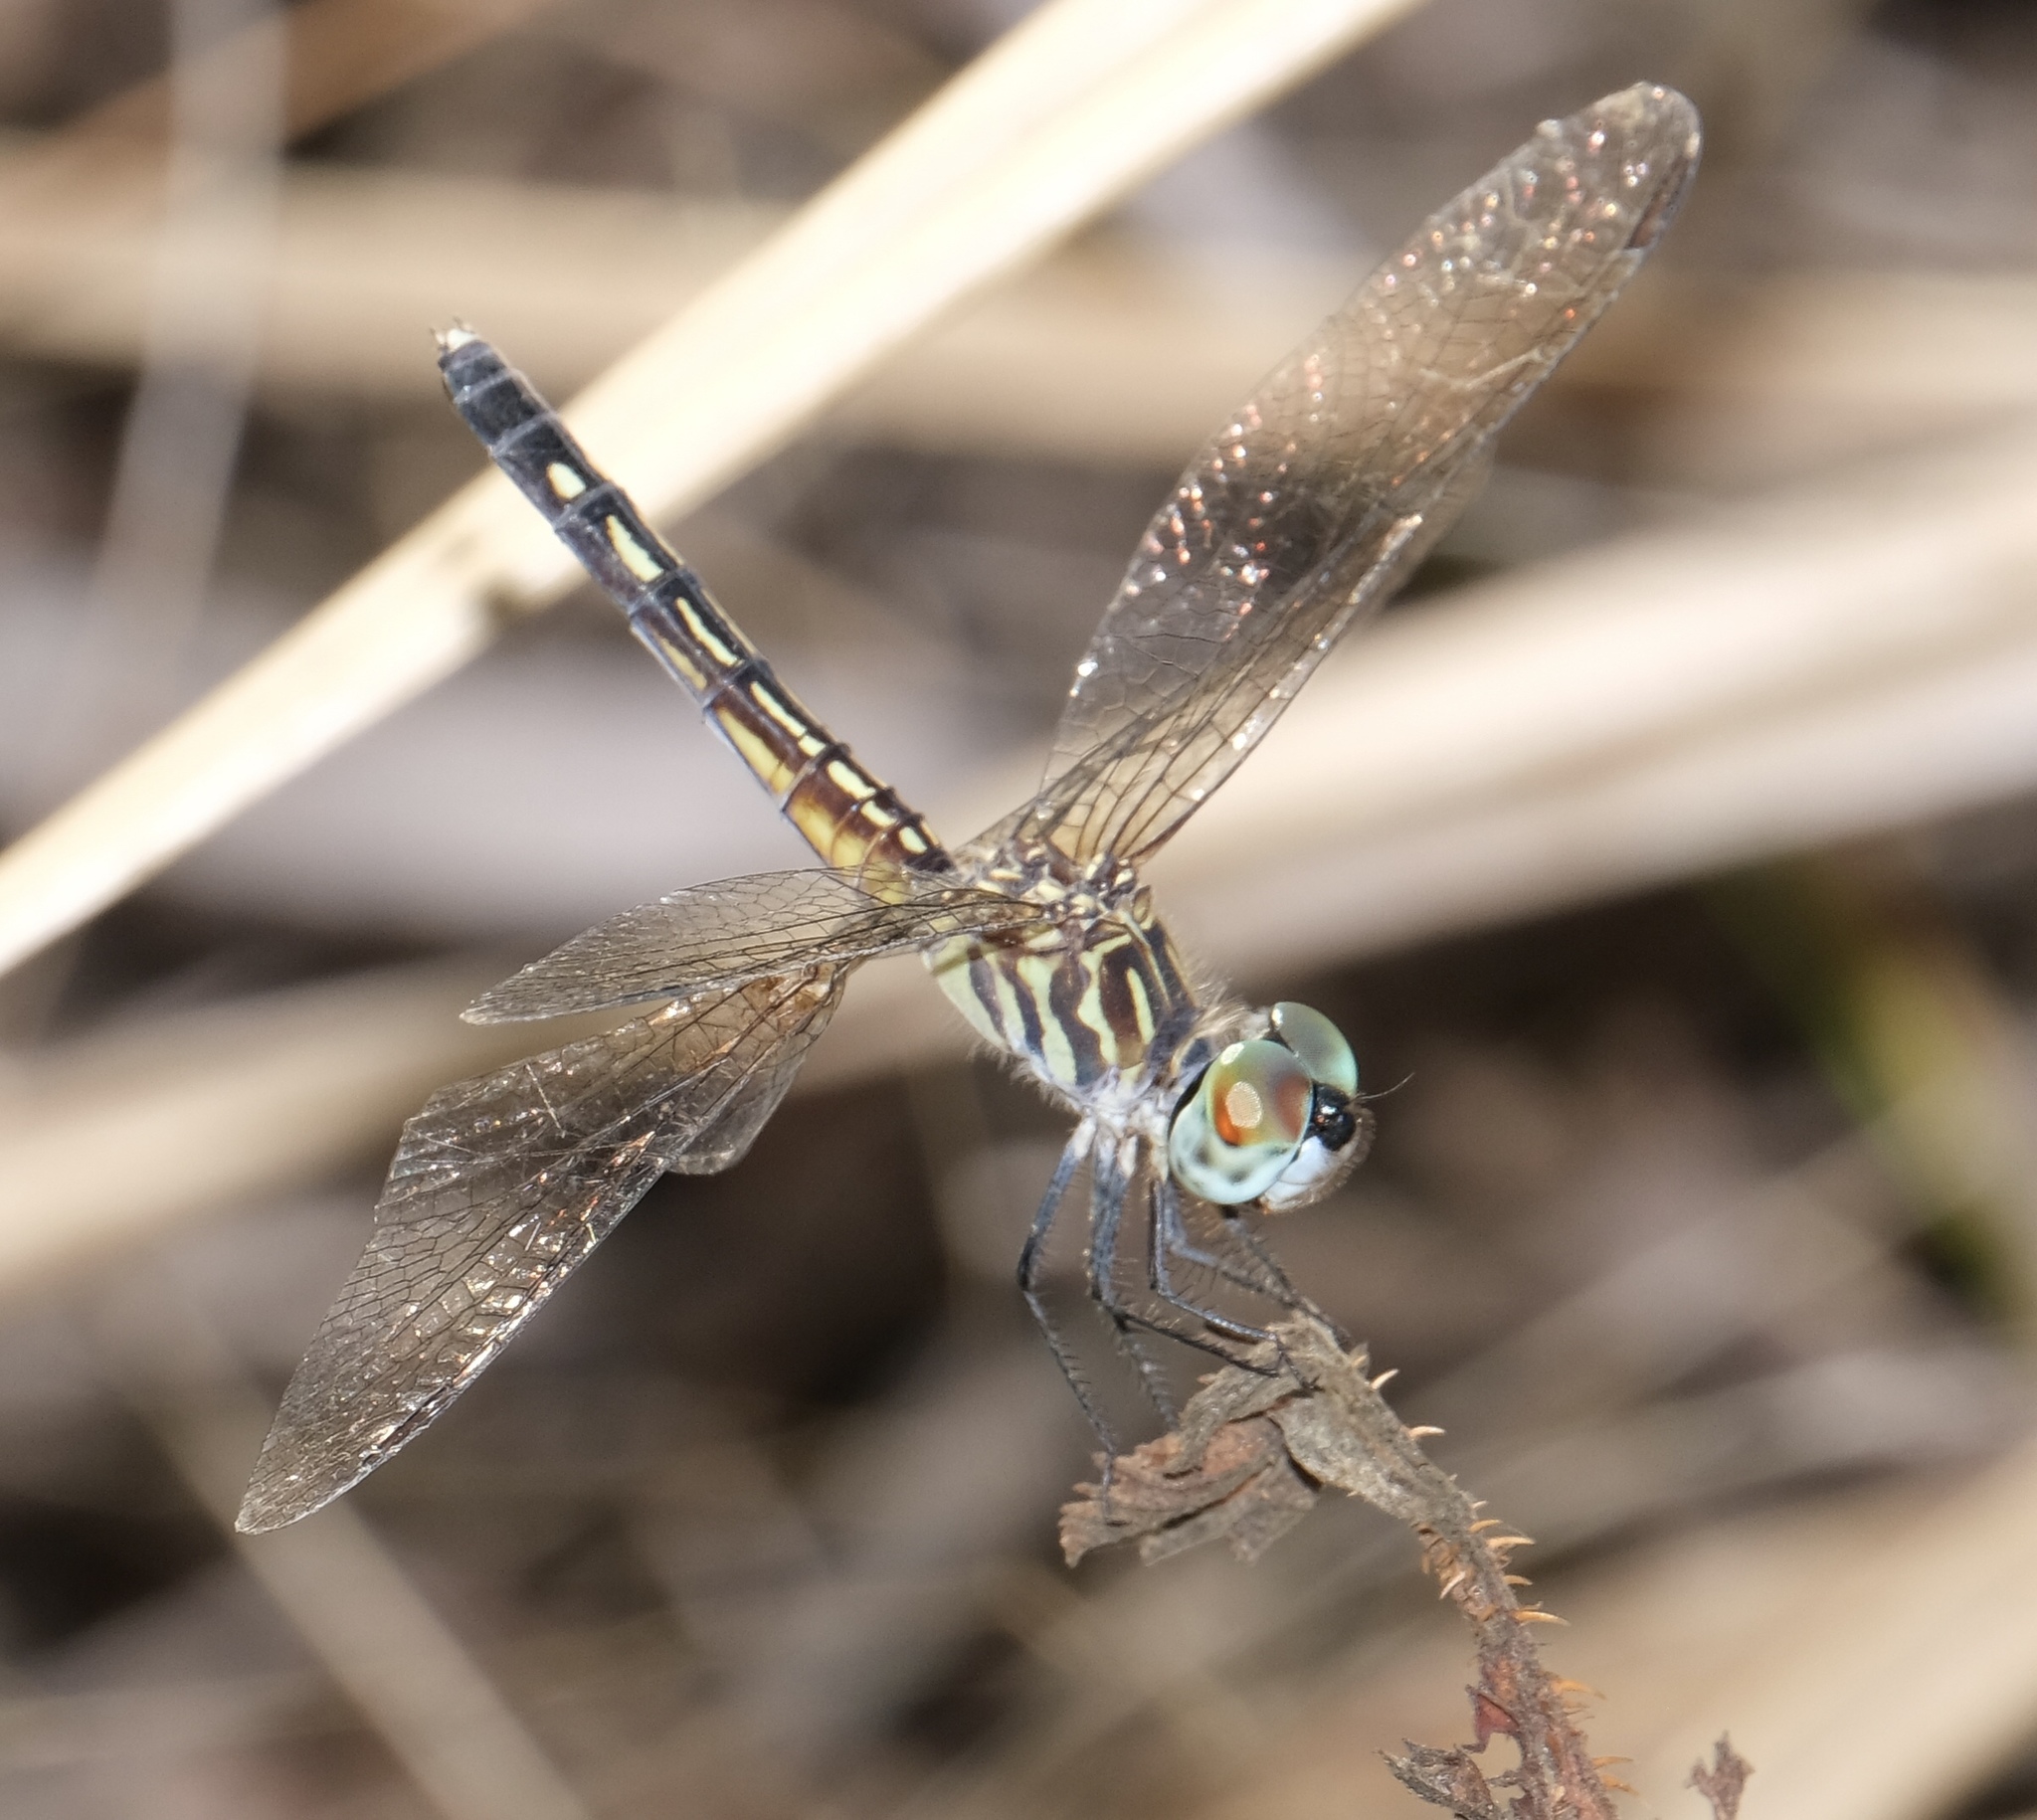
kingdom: Animalia
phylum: Arthropoda
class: Insecta
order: Odonata
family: Libellulidae
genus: Pachydiplax
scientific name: Pachydiplax longipennis
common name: Blue dasher
